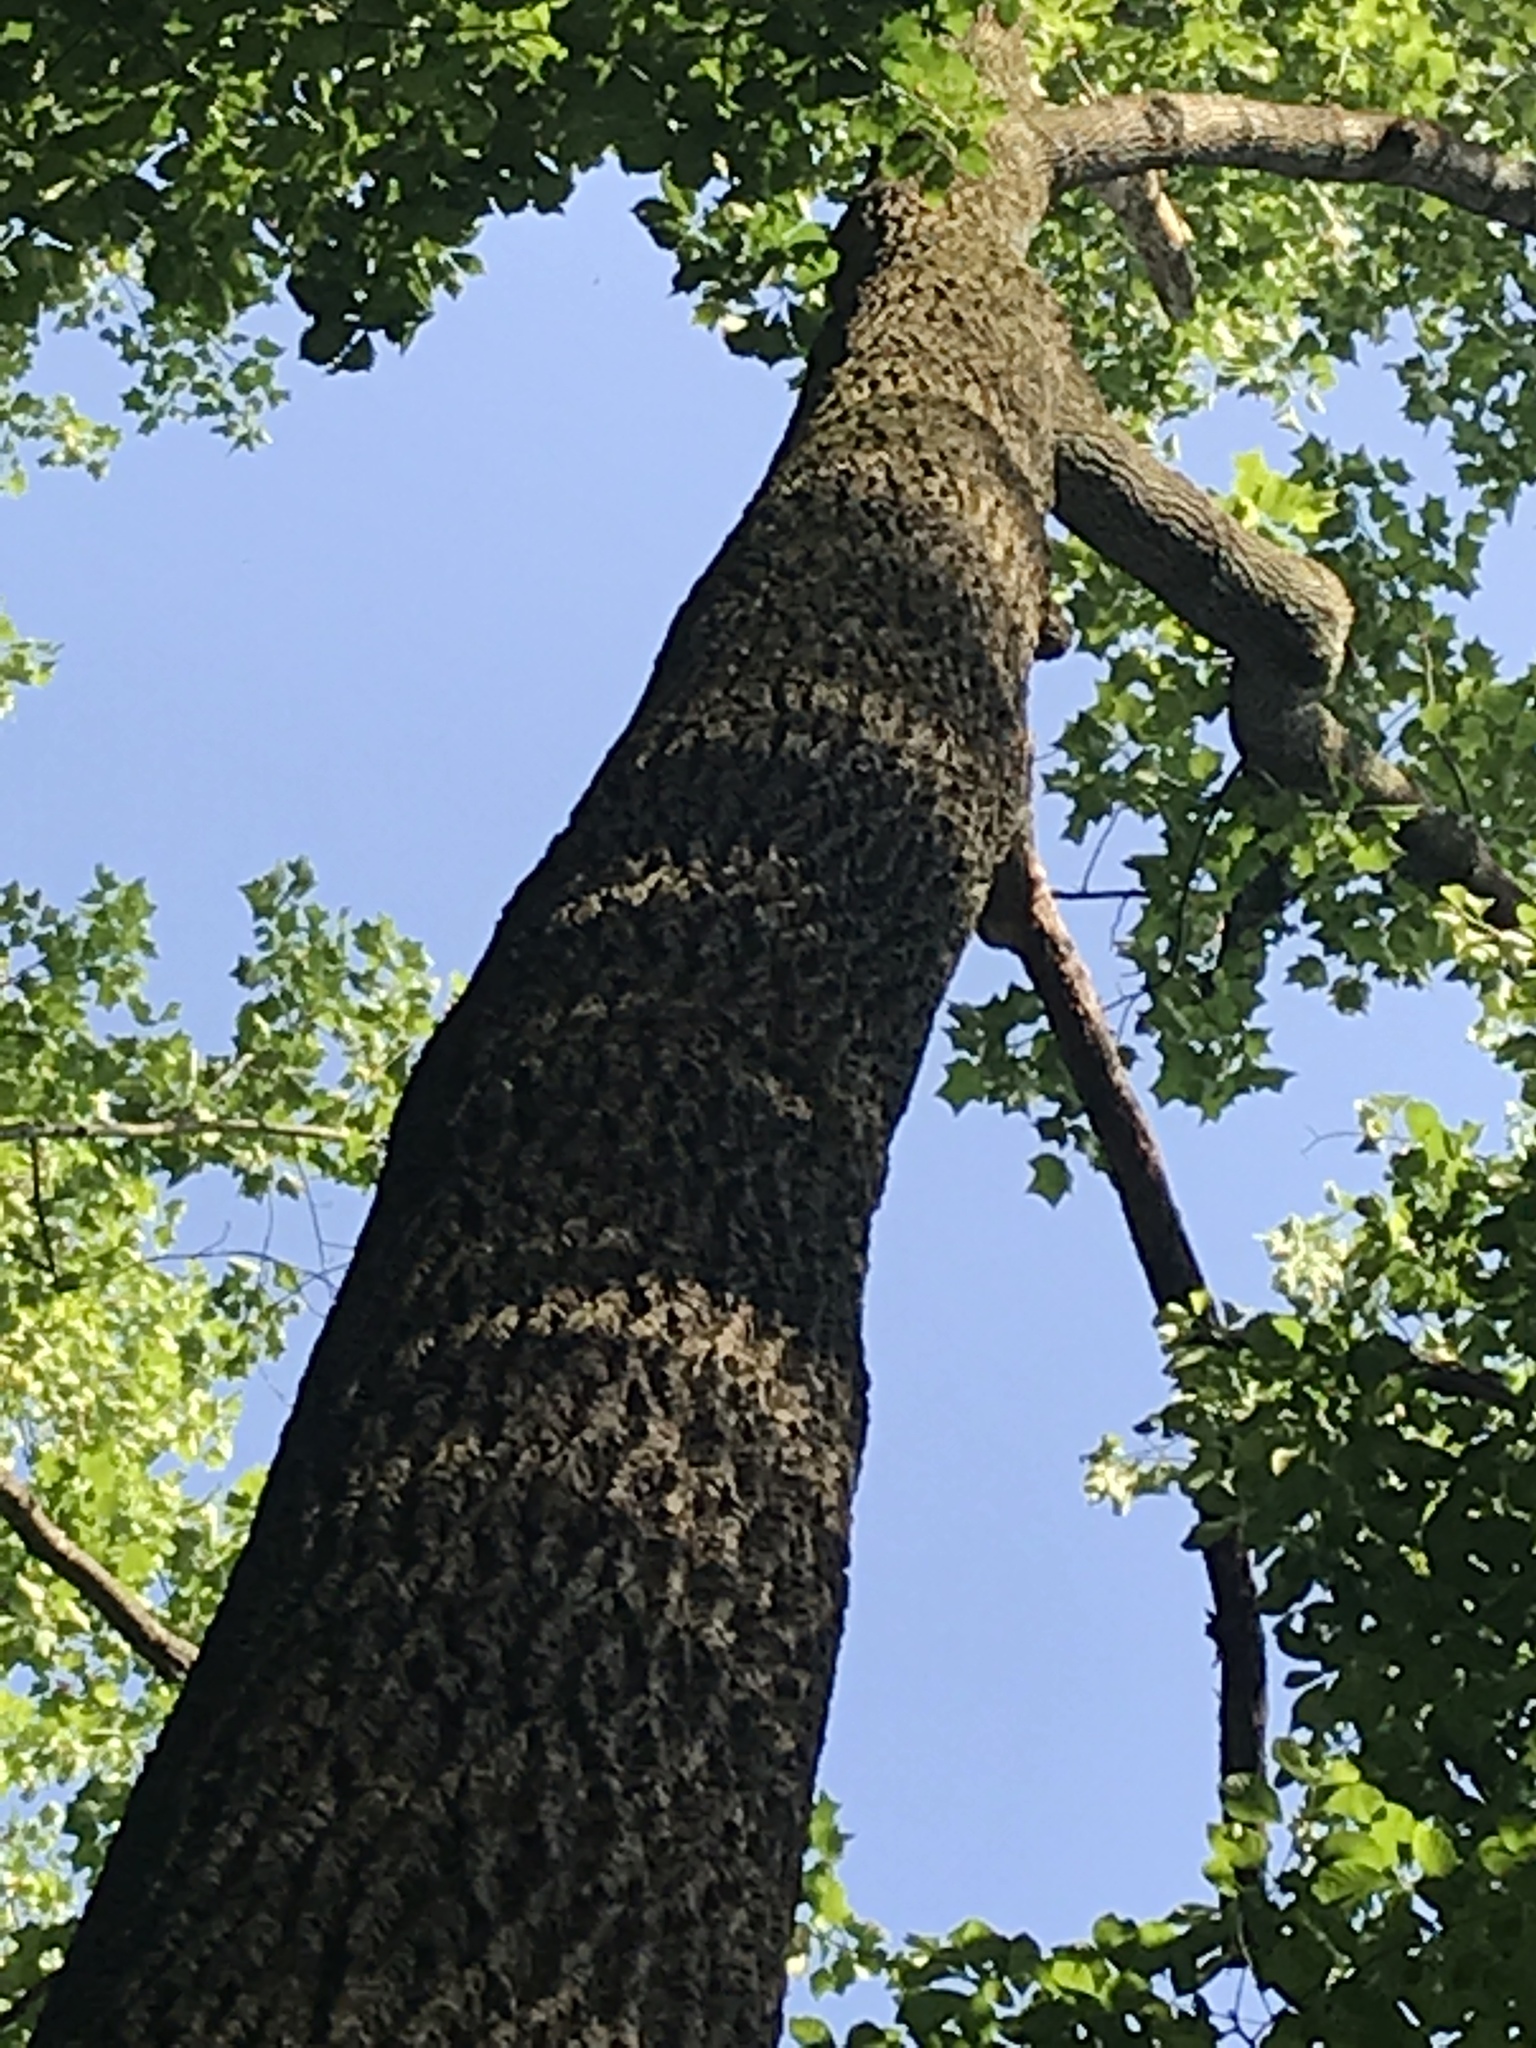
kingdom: Plantae
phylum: Tracheophyta
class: Magnoliopsida
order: Magnoliales
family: Magnoliaceae
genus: Liriodendron
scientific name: Liriodendron tulipifera
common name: Tulip tree
